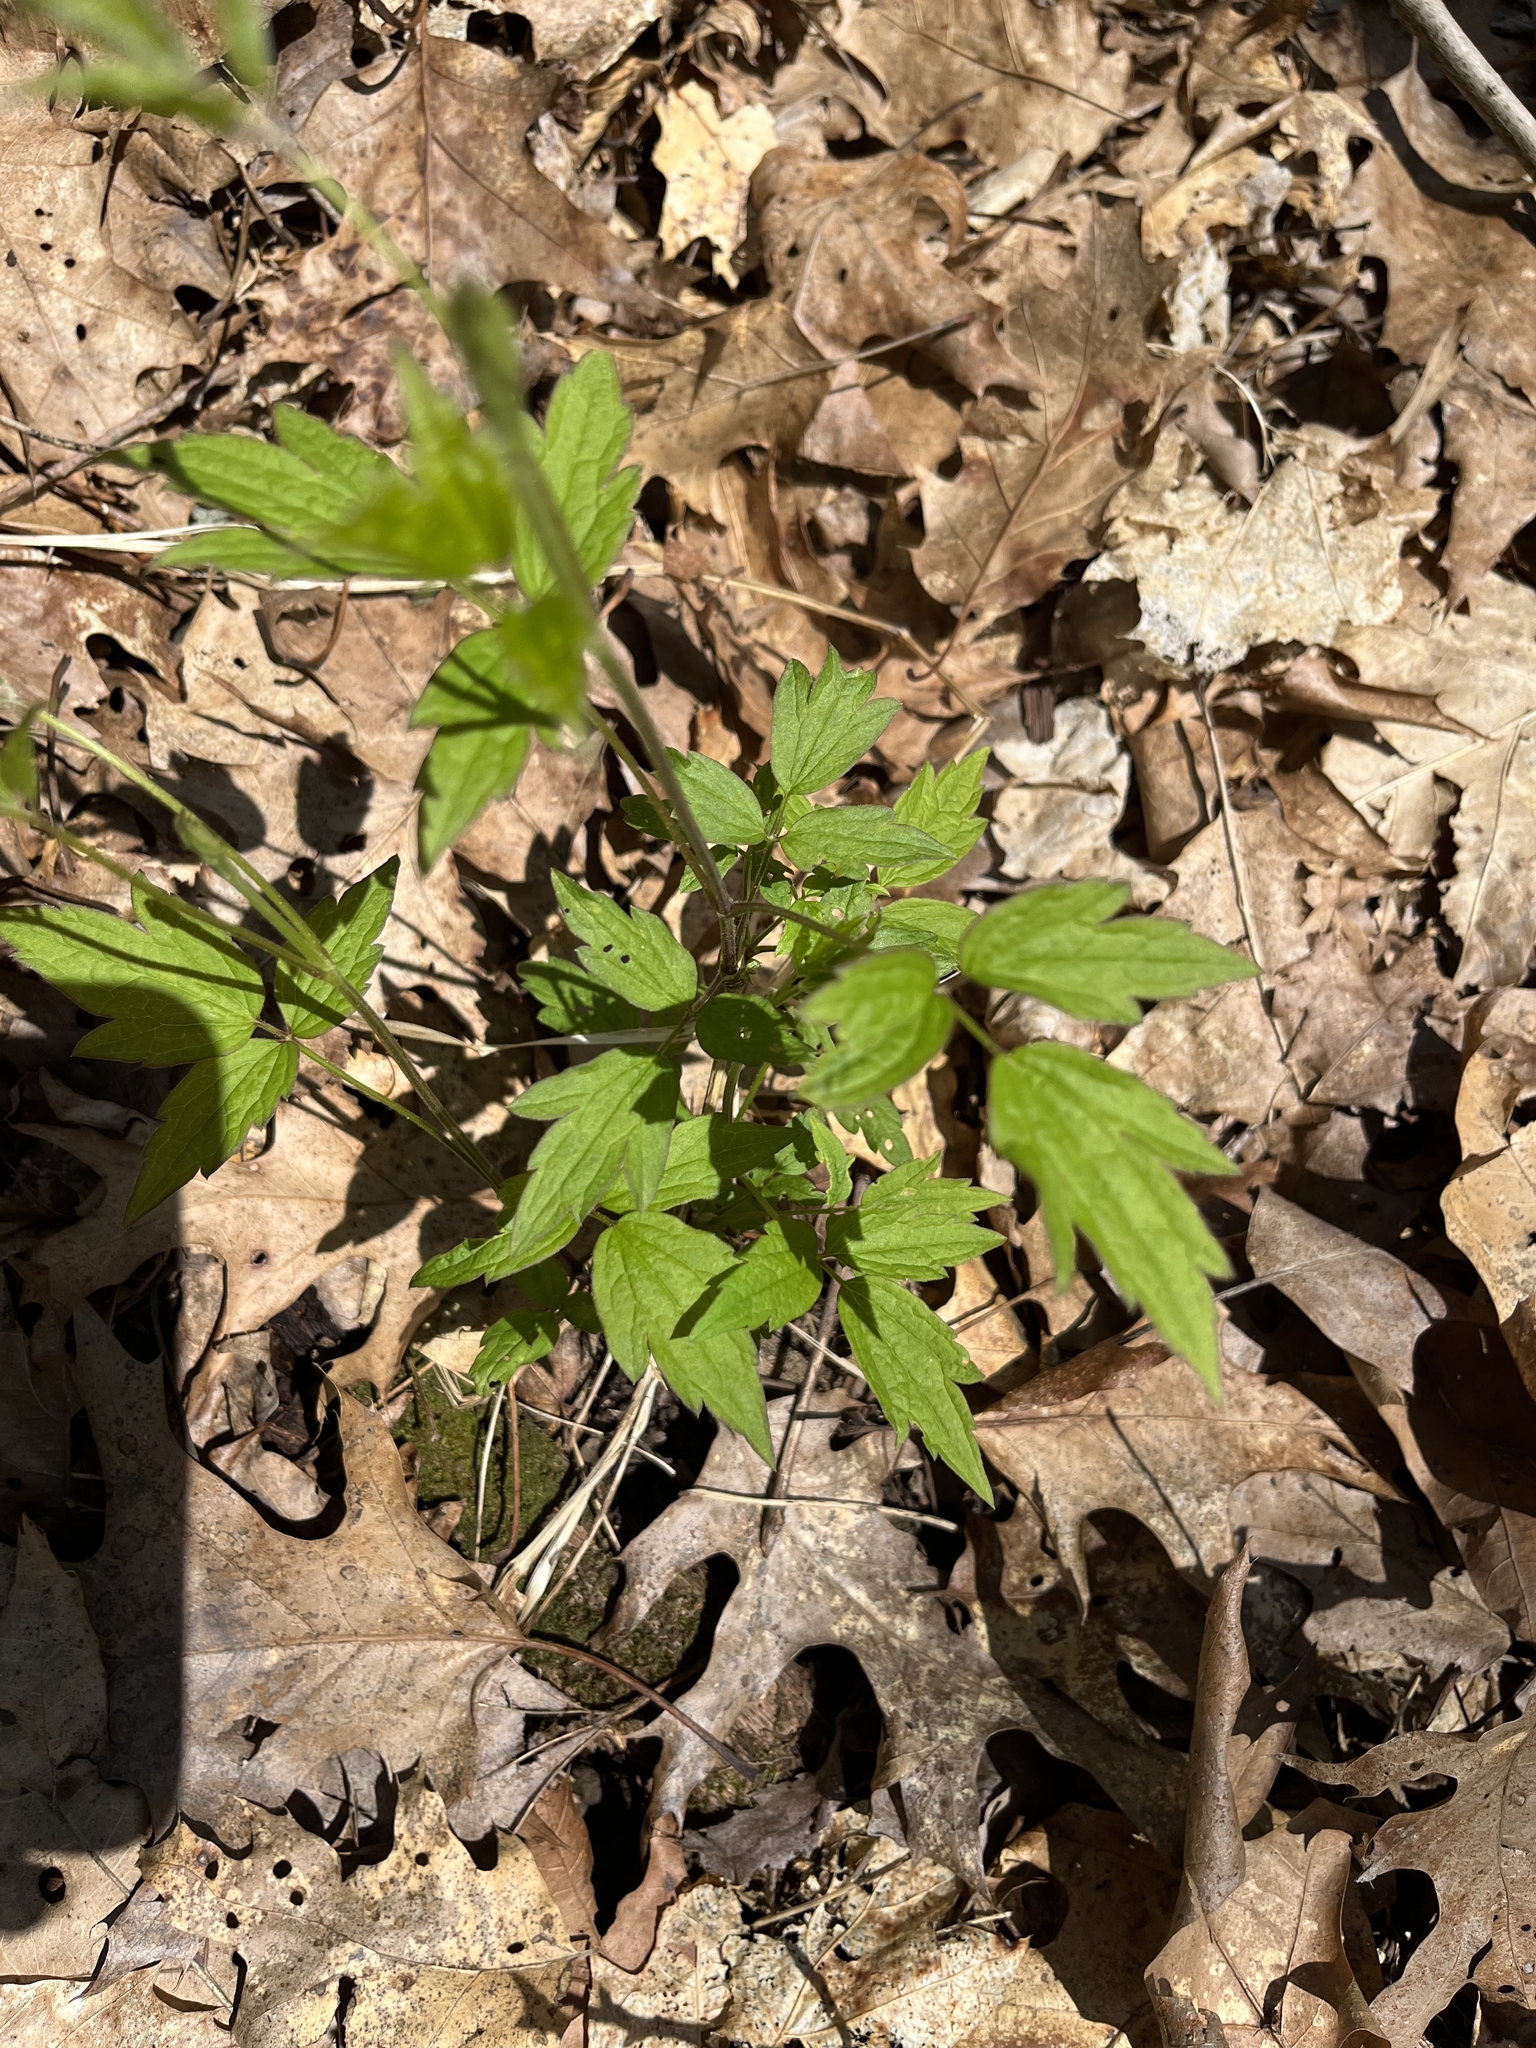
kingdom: Plantae
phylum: Tracheophyta
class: Magnoliopsida
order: Ranunculales
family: Ranunculaceae
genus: Clematis
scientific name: Clematis virginiana
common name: Virgin's-bower
